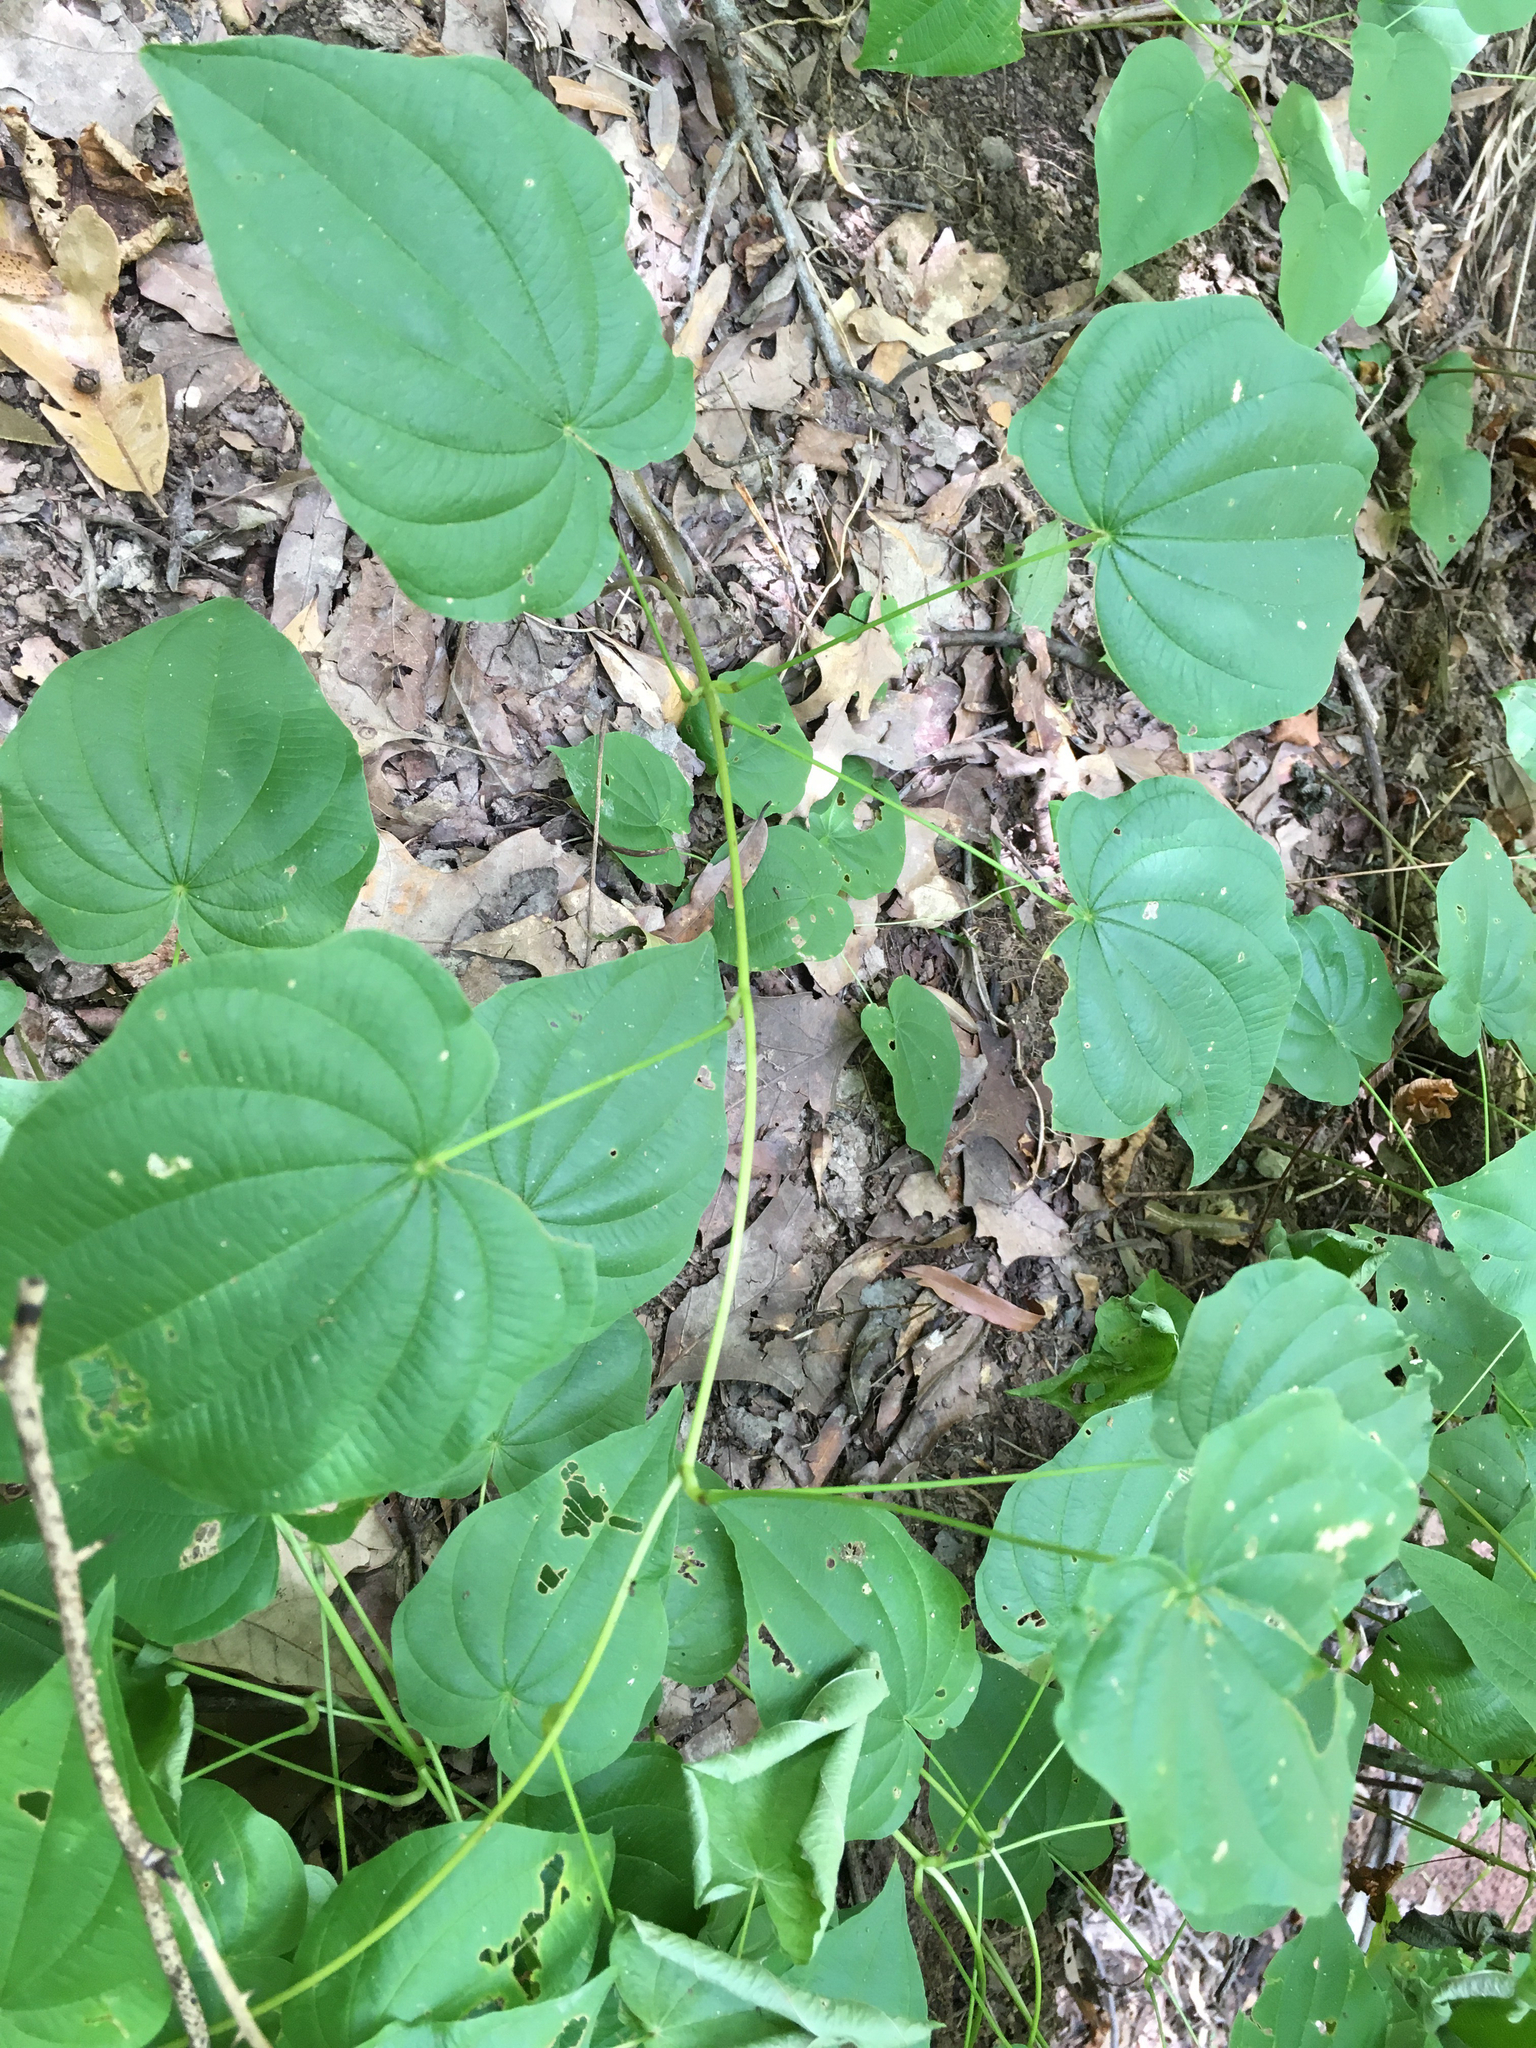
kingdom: Plantae
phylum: Tracheophyta
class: Liliopsida
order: Dioscoreales
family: Dioscoreaceae
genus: Dioscorea
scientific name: Dioscorea villosa
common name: Wild yam
